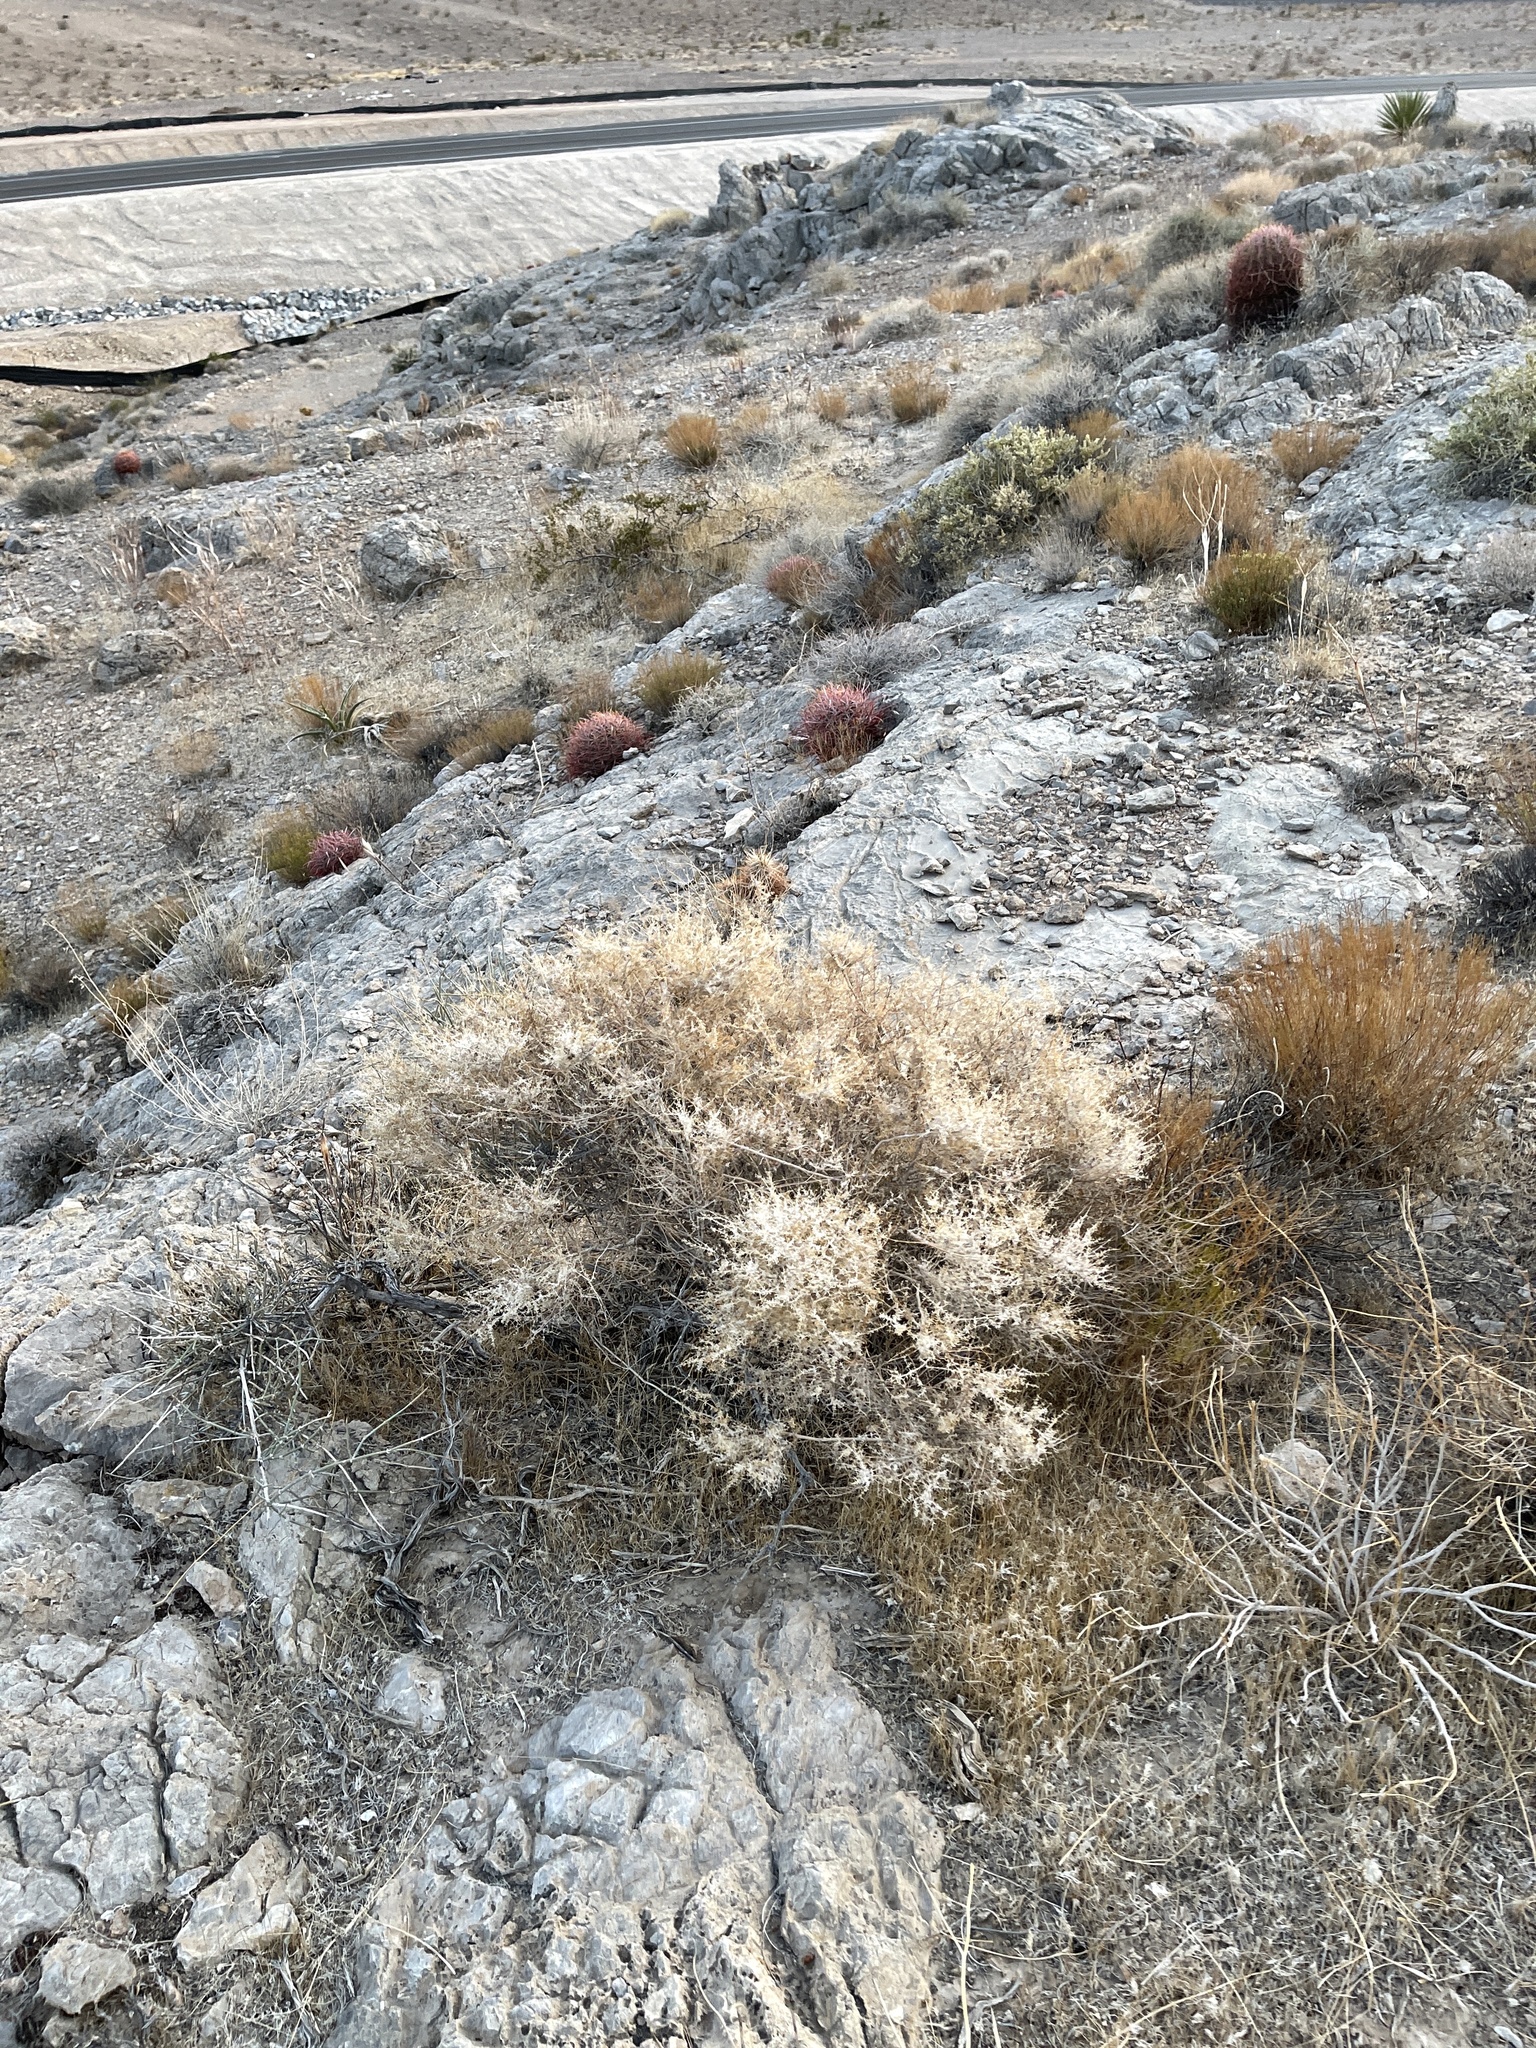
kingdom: Plantae
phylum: Tracheophyta
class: Magnoliopsida
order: Gentianales
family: Rubiaceae
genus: Galium
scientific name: Galium stellatum
